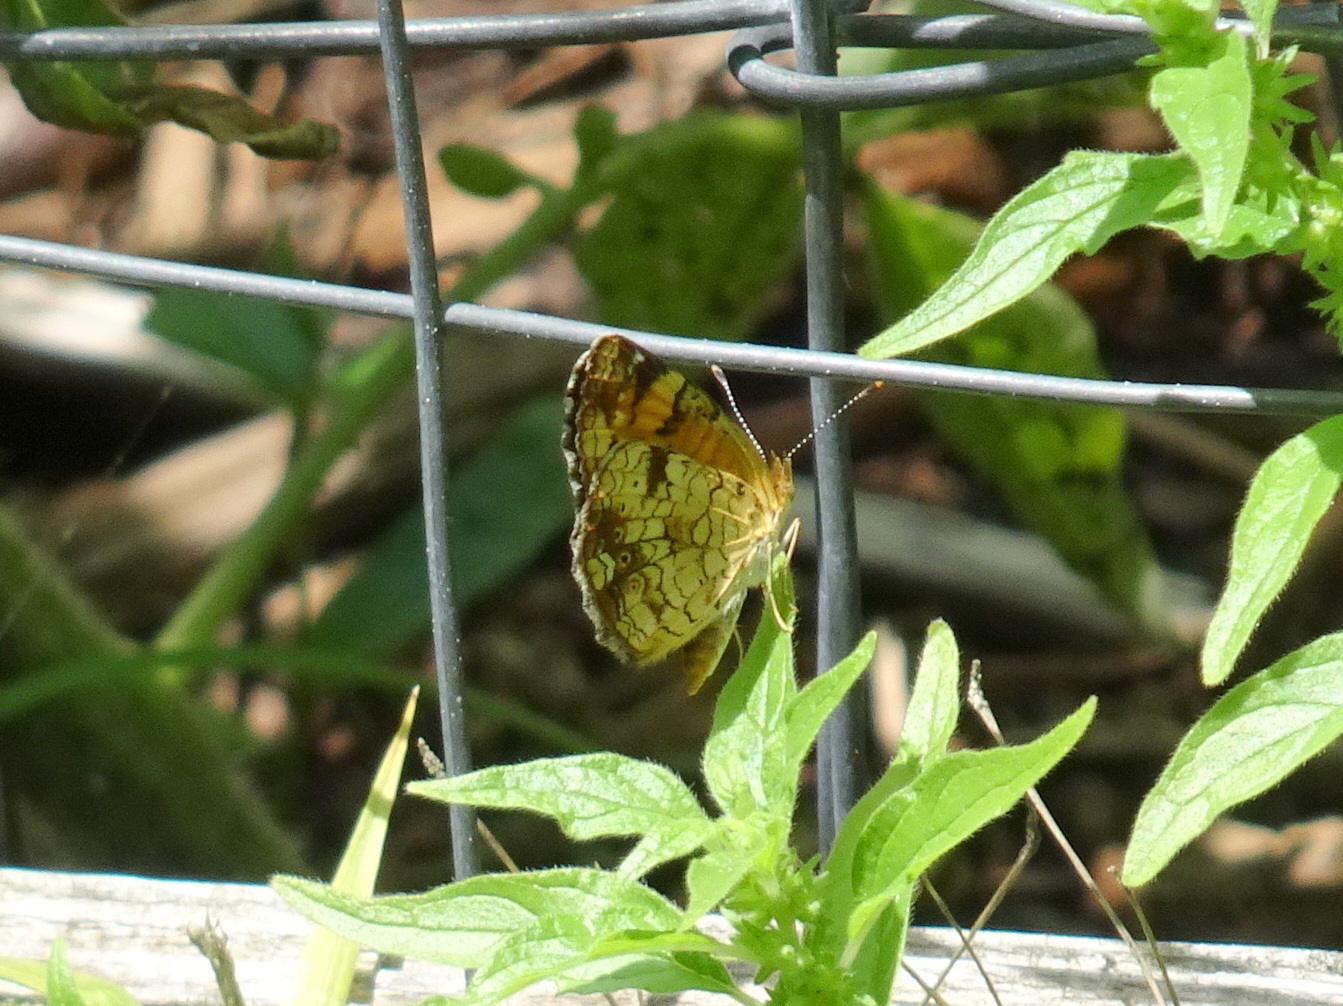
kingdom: Animalia
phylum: Arthropoda
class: Insecta
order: Lepidoptera
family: Nymphalidae
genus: Phyciodes
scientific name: Phyciodes tharos
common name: Pearl crescent
